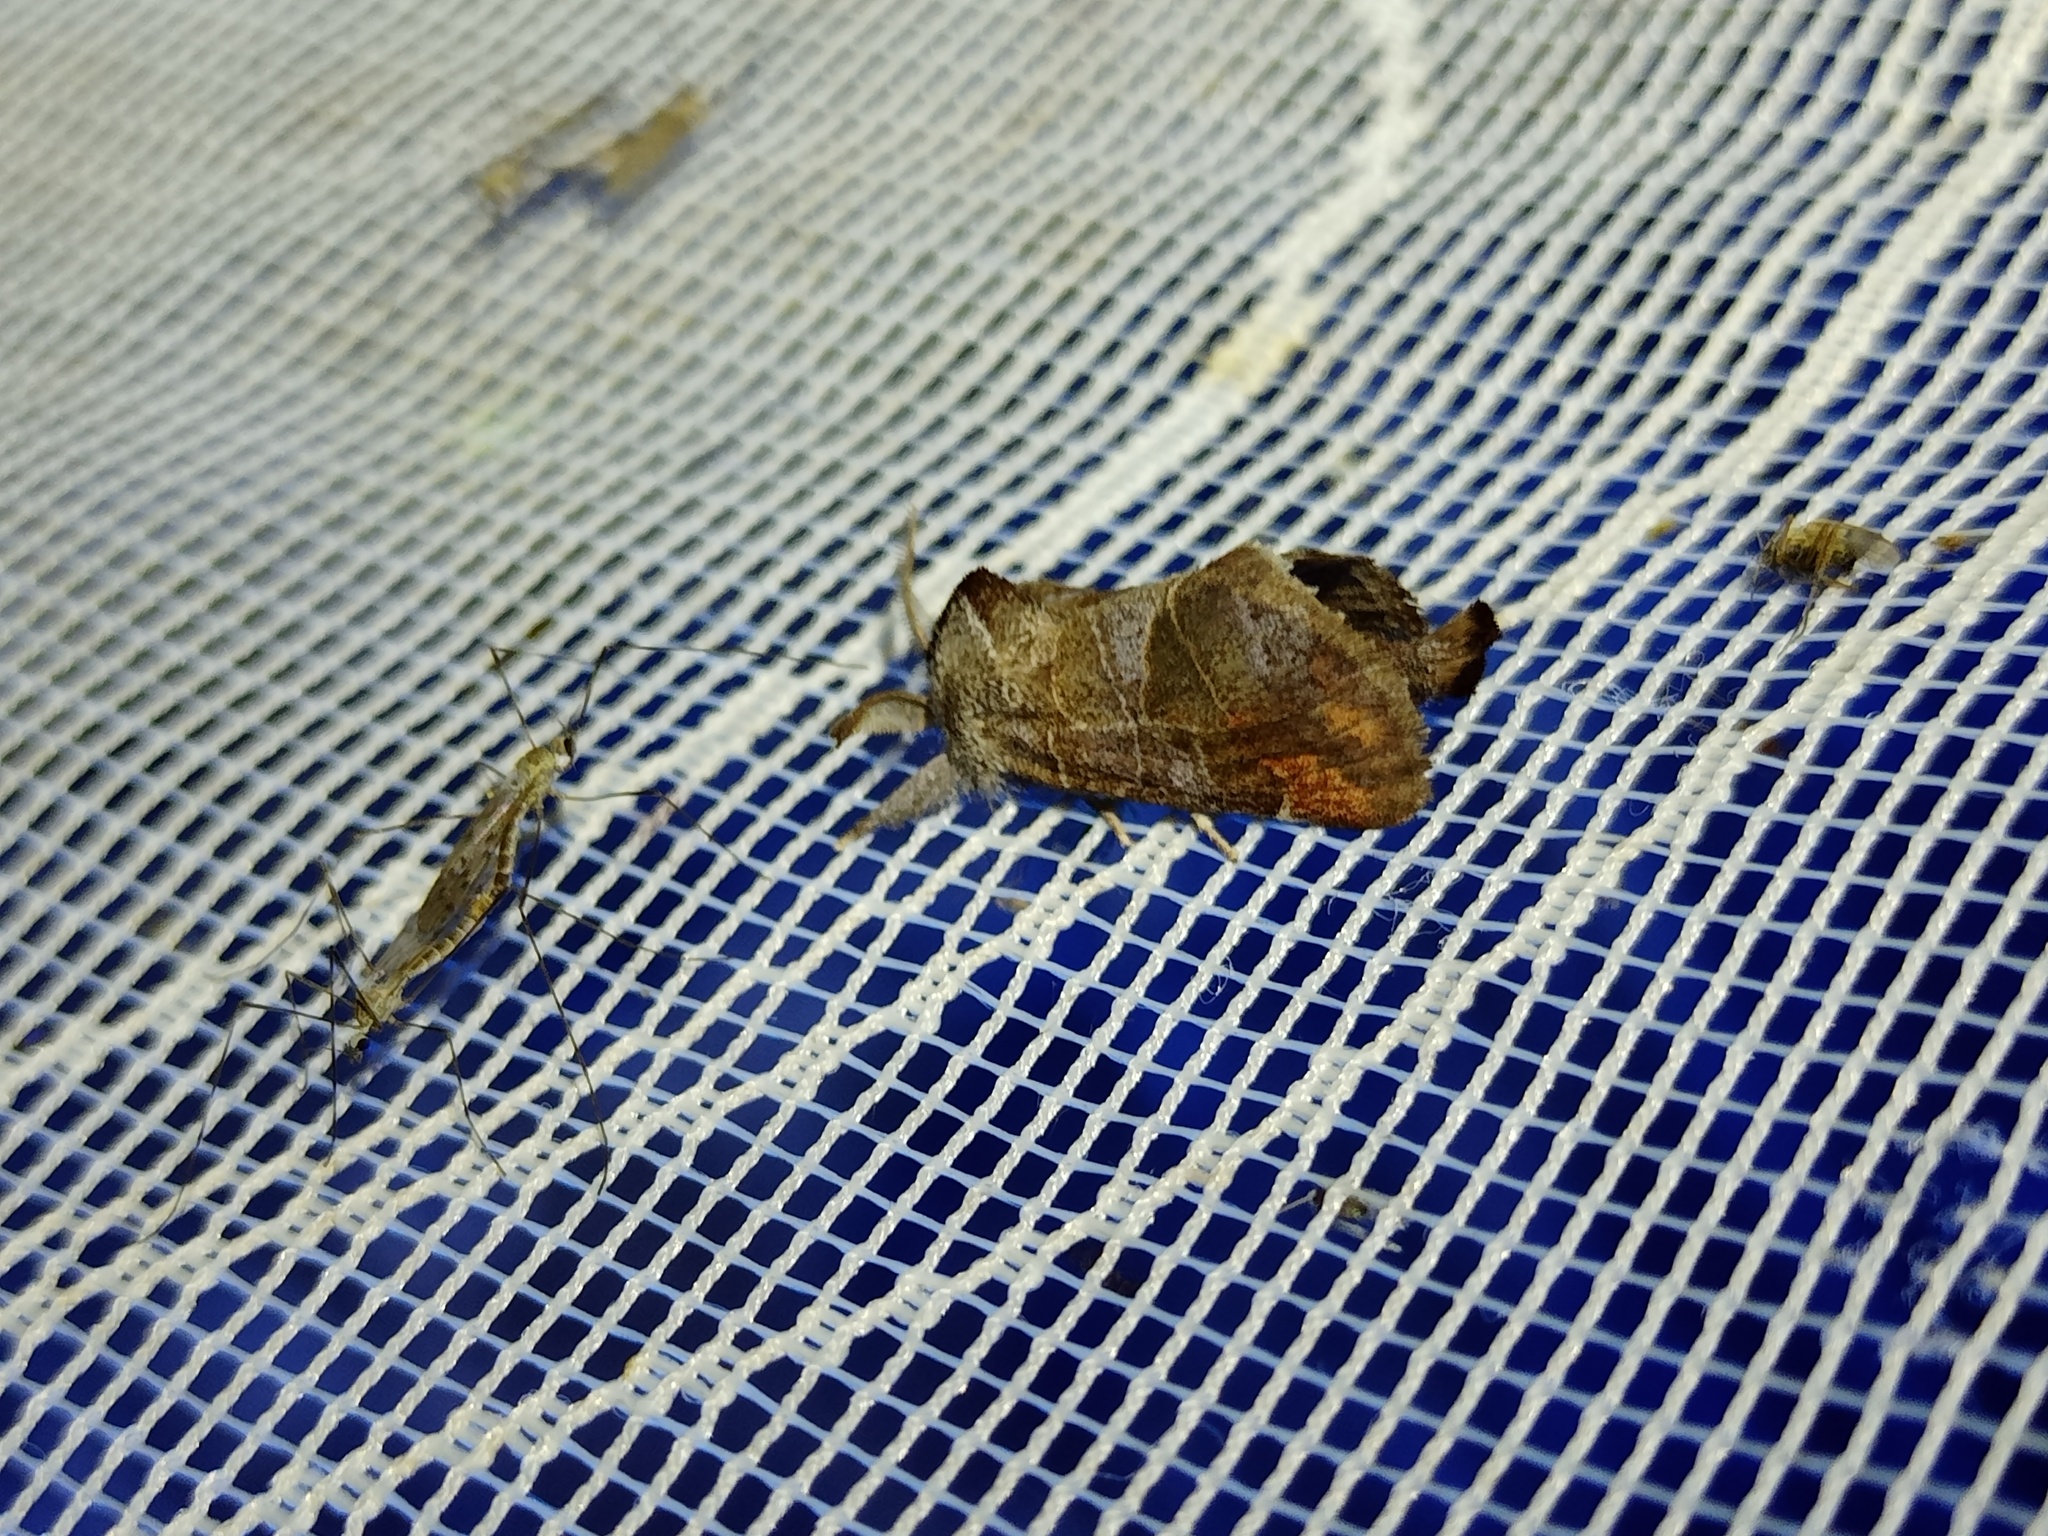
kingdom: Animalia
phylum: Arthropoda
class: Insecta
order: Lepidoptera
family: Notodontidae
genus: Clostera
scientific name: Clostera pigra
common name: Small chocolate-tip
